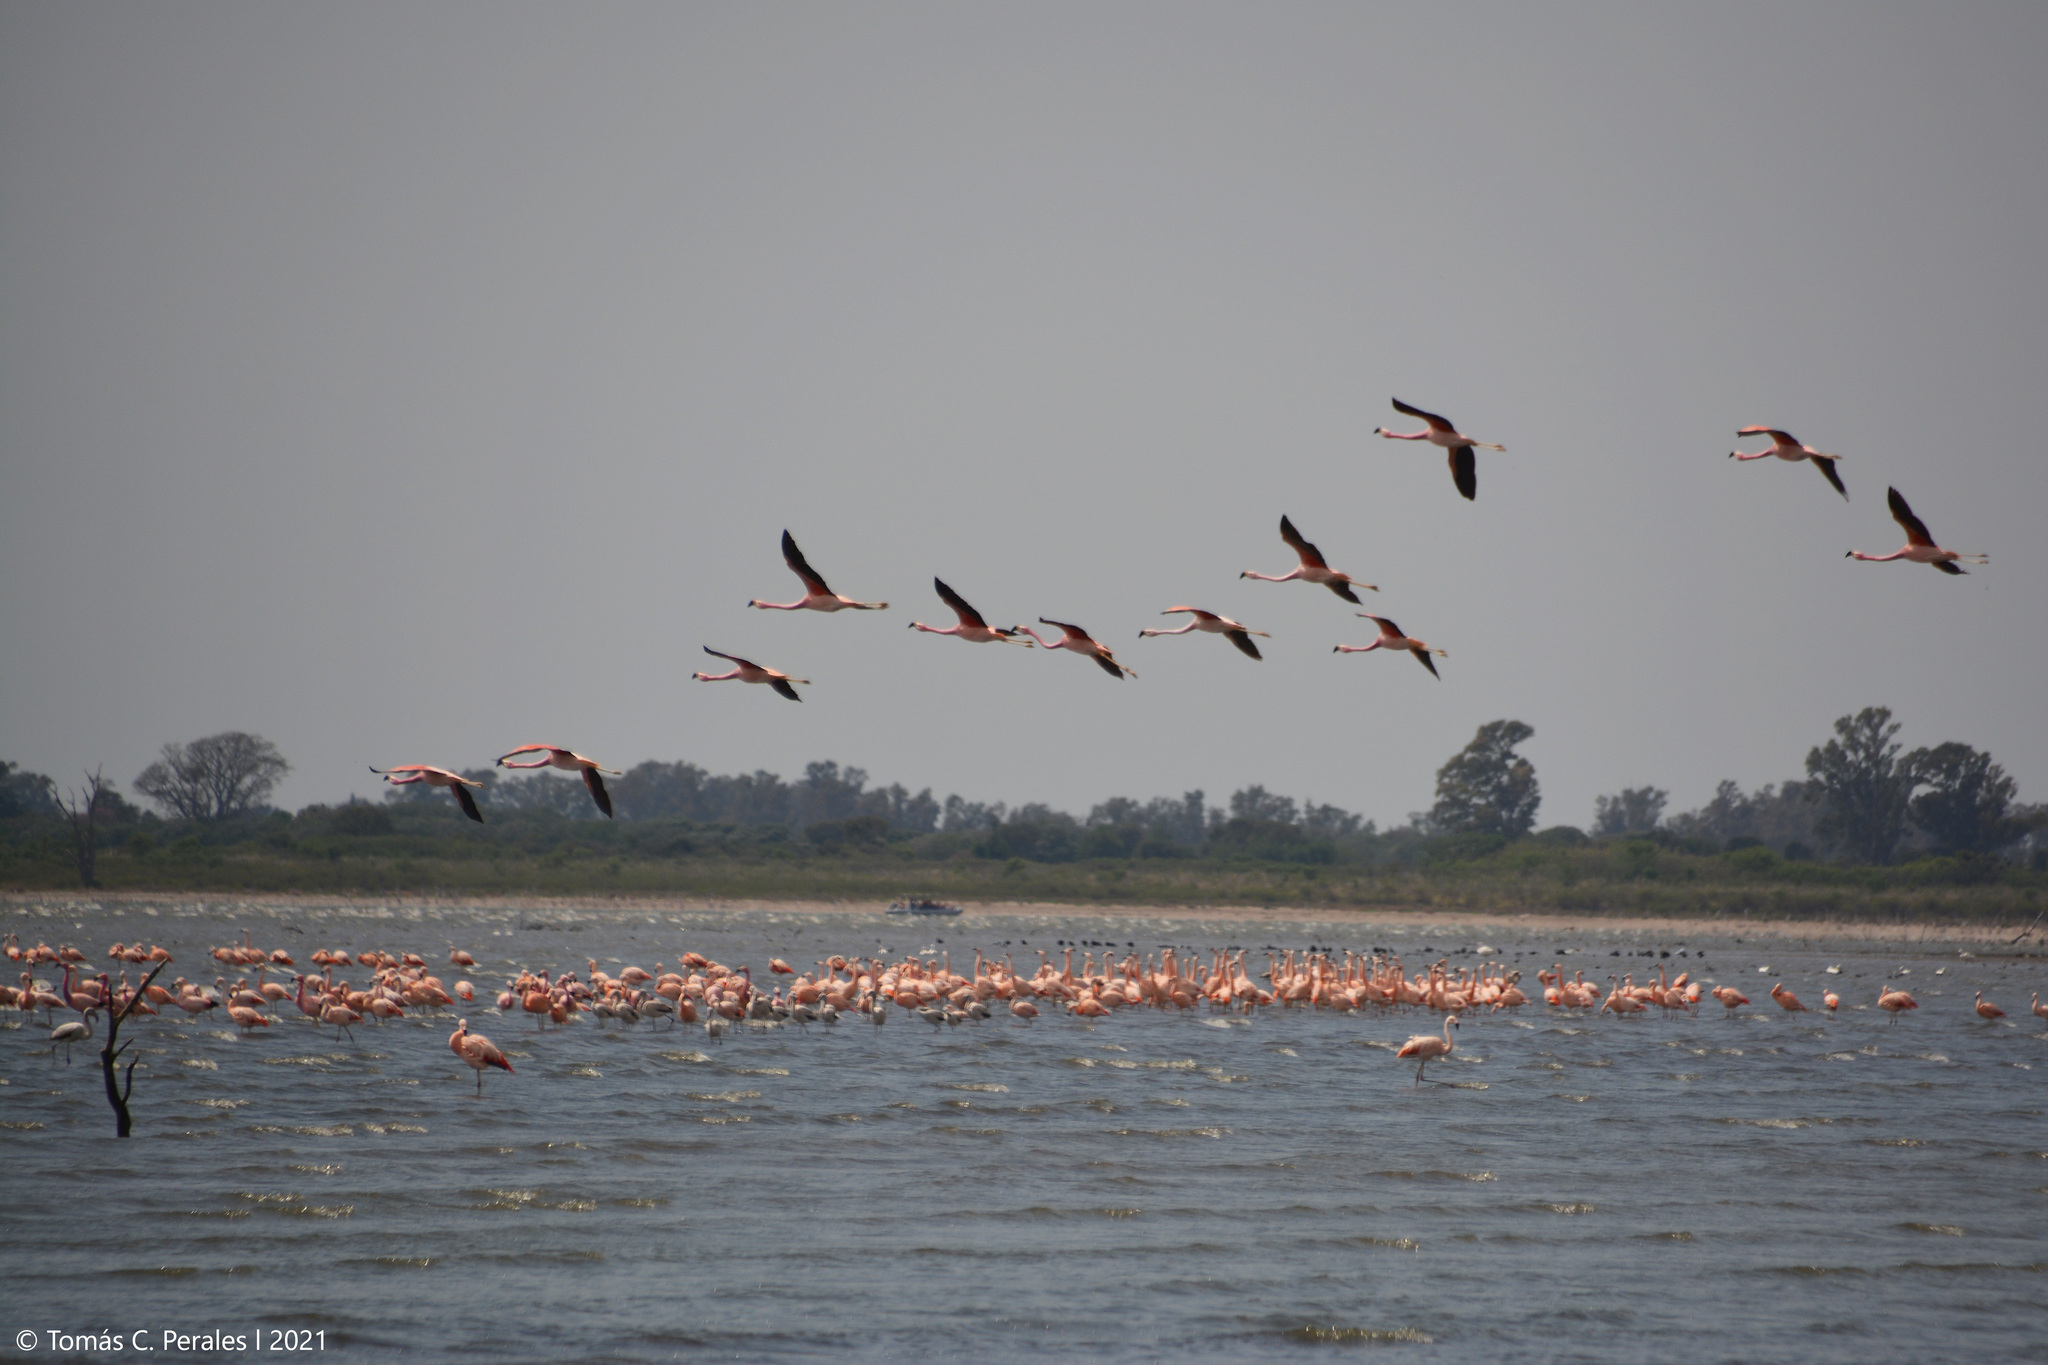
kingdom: Animalia
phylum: Chordata
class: Aves
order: Phoenicopteriformes
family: Phoenicopteridae
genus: Phoenicopterus
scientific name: Phoenicopterus chilensis
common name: Chilean flamingo
